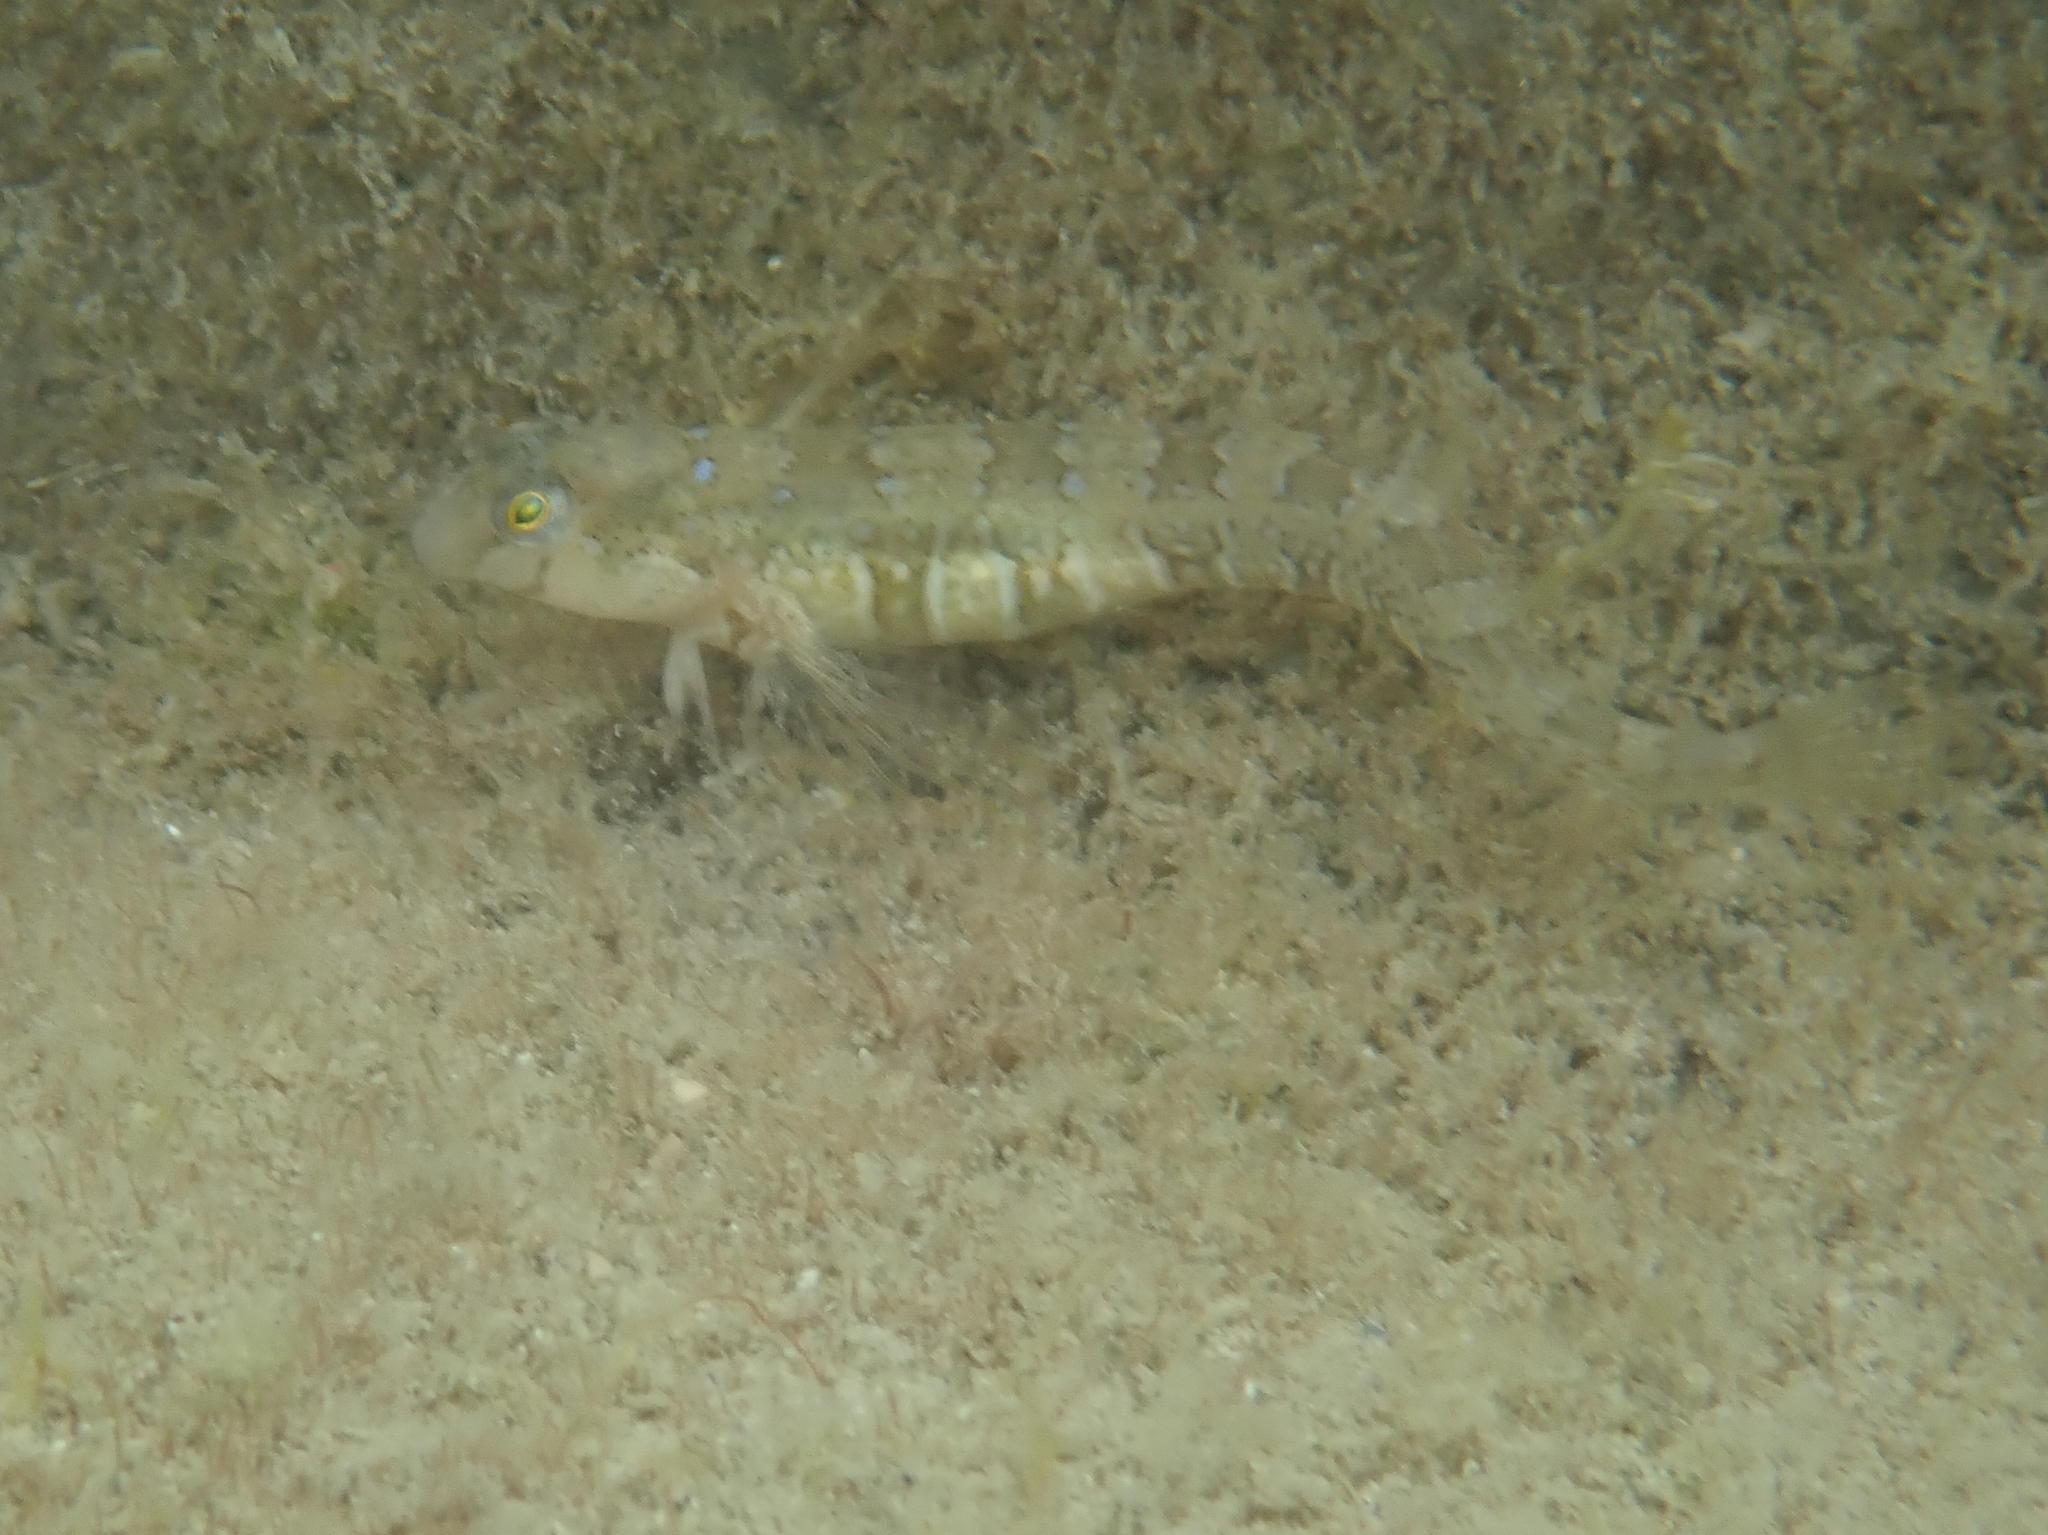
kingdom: Animalia
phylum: Chordata
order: Perciformes
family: Blenniidae
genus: Microlipophrys
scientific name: Microlipophrys dalmatinus
